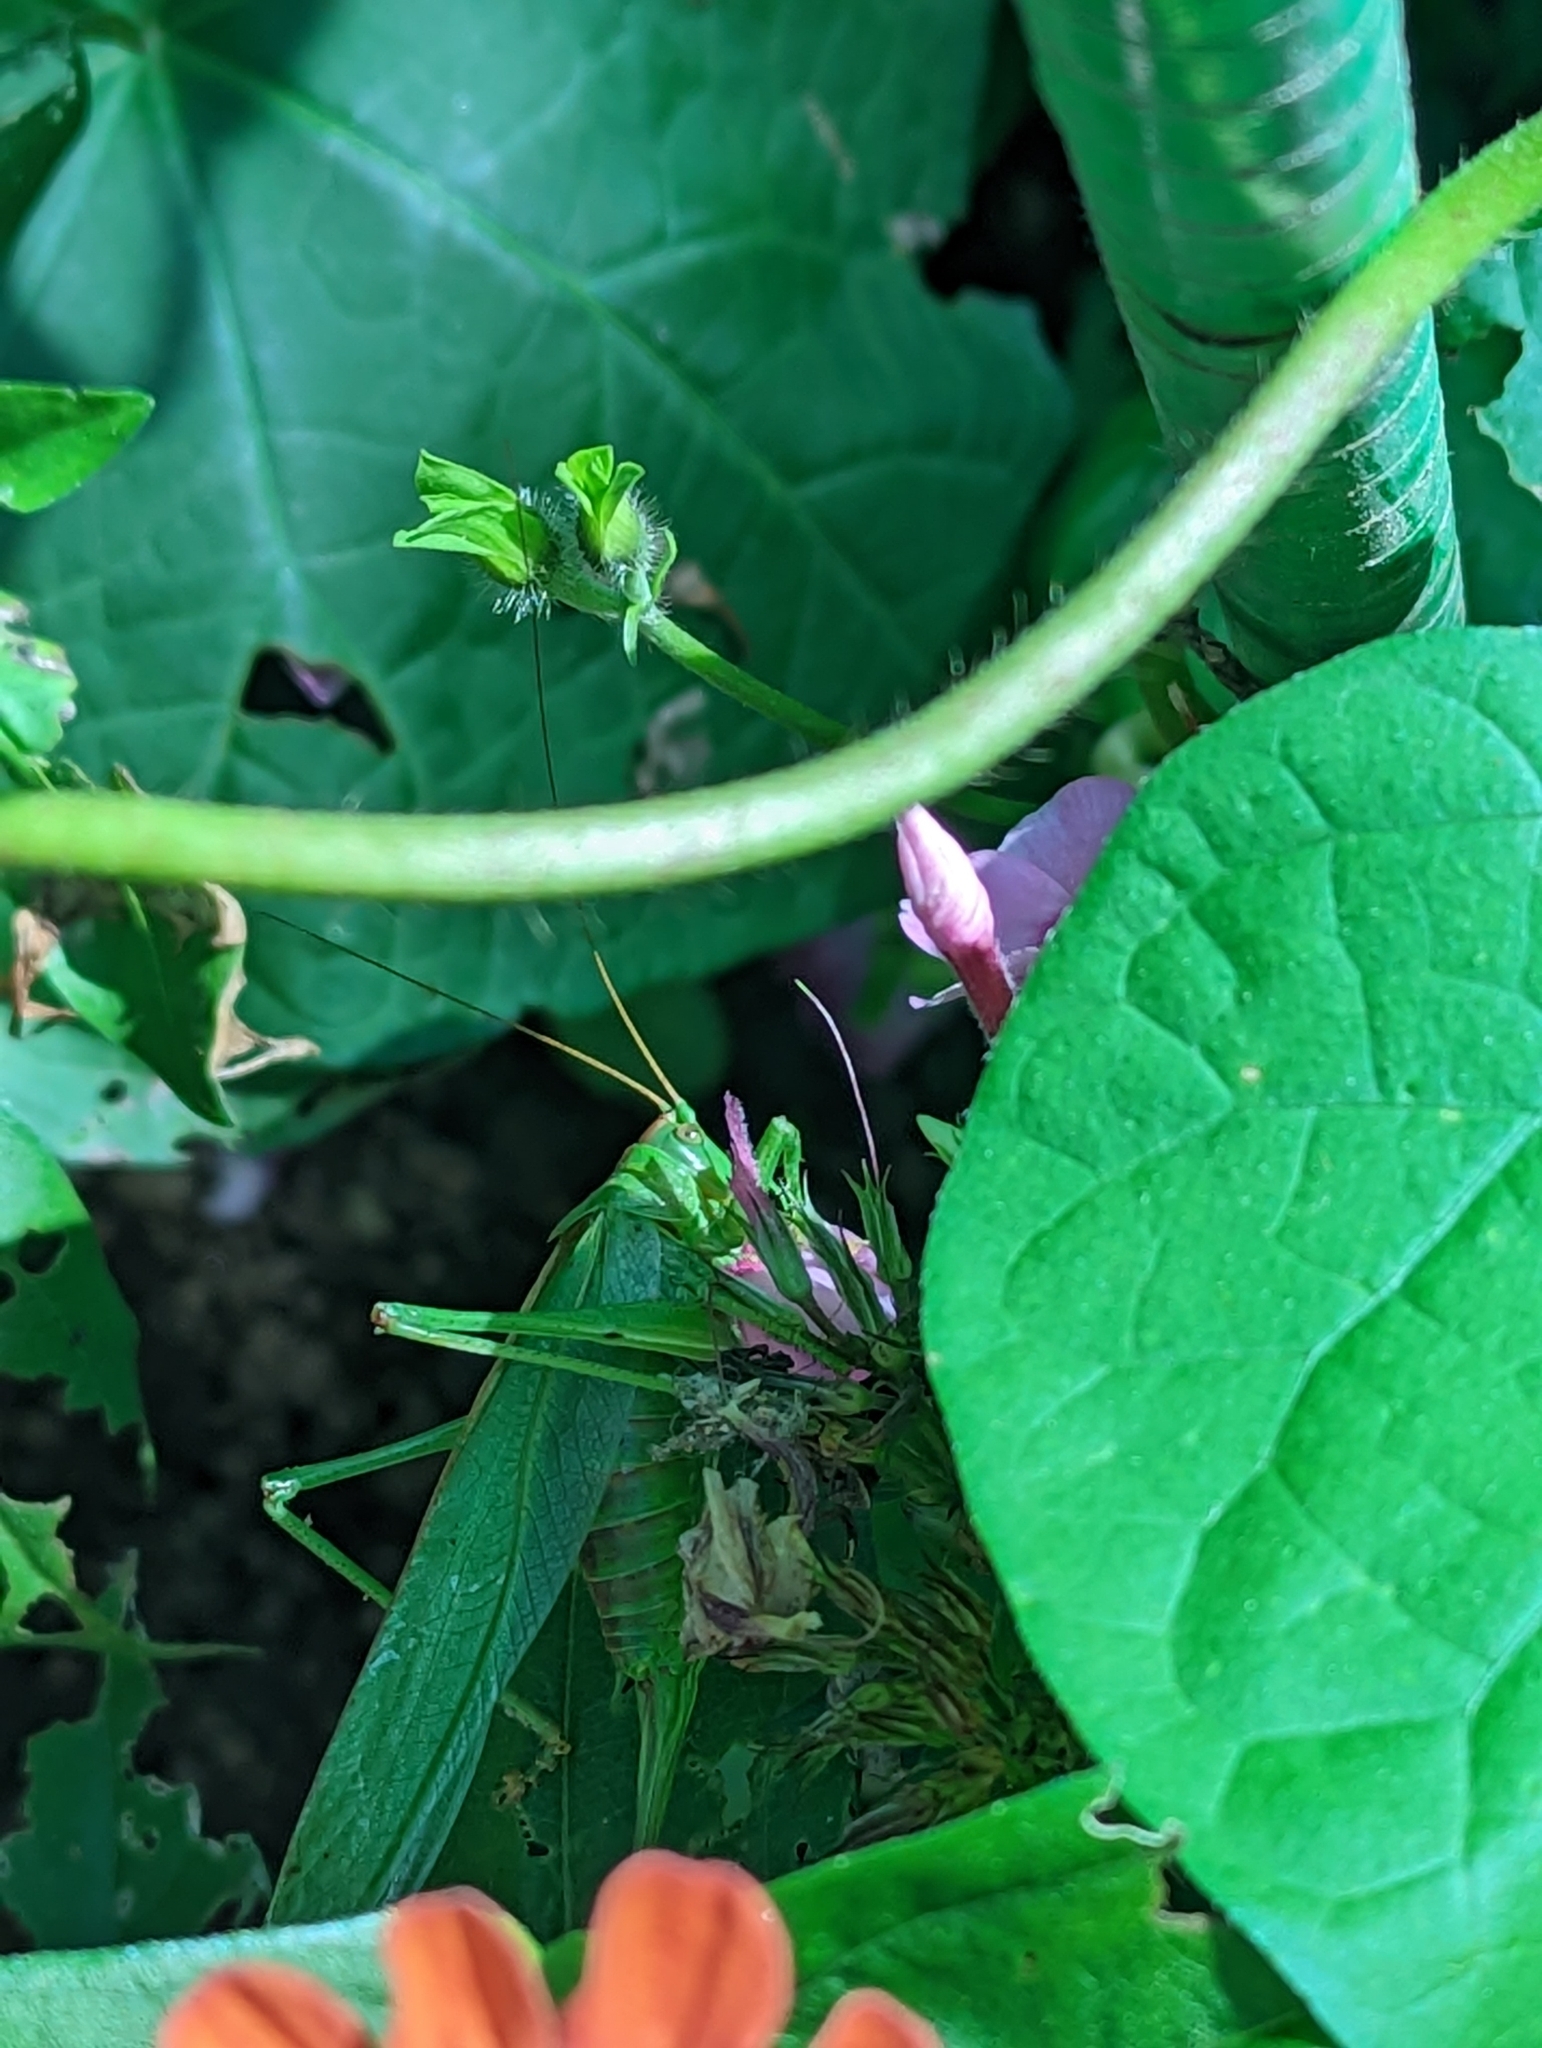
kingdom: Animalia
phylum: Arthropoda
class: Insecta
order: Orthoptera
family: Tettigoniidae
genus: Tettigonia
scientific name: Tettigonia viridissima
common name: Great green bush-cricket
